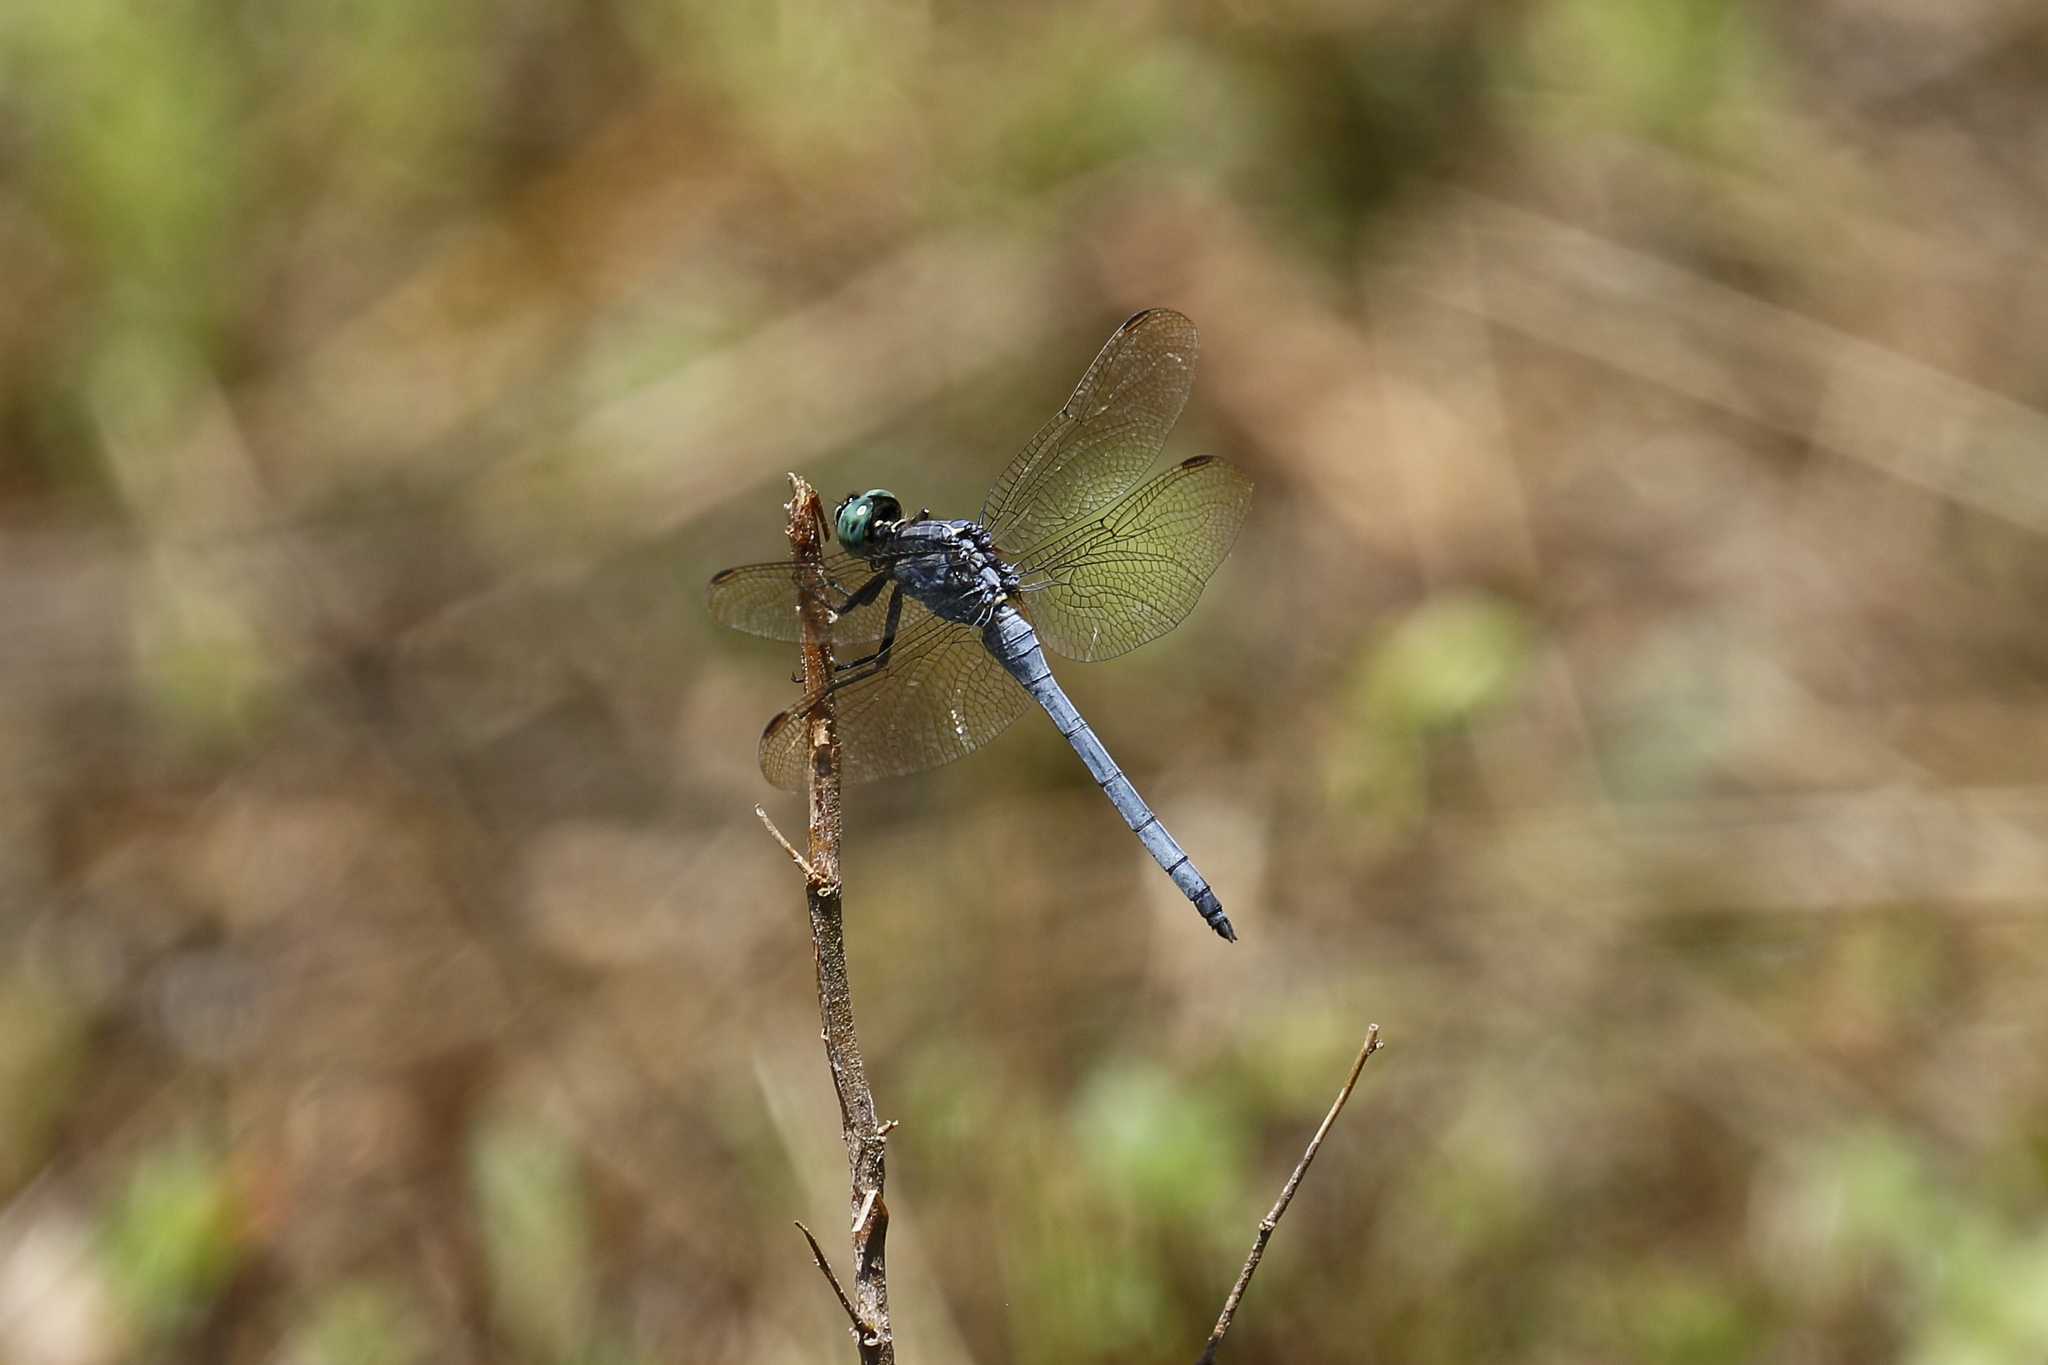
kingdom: Animalia
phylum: Arthropoda
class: Insecta
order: Odonata
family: Libellulidae
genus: Orthetrum
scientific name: Orthetrum luzonicum
